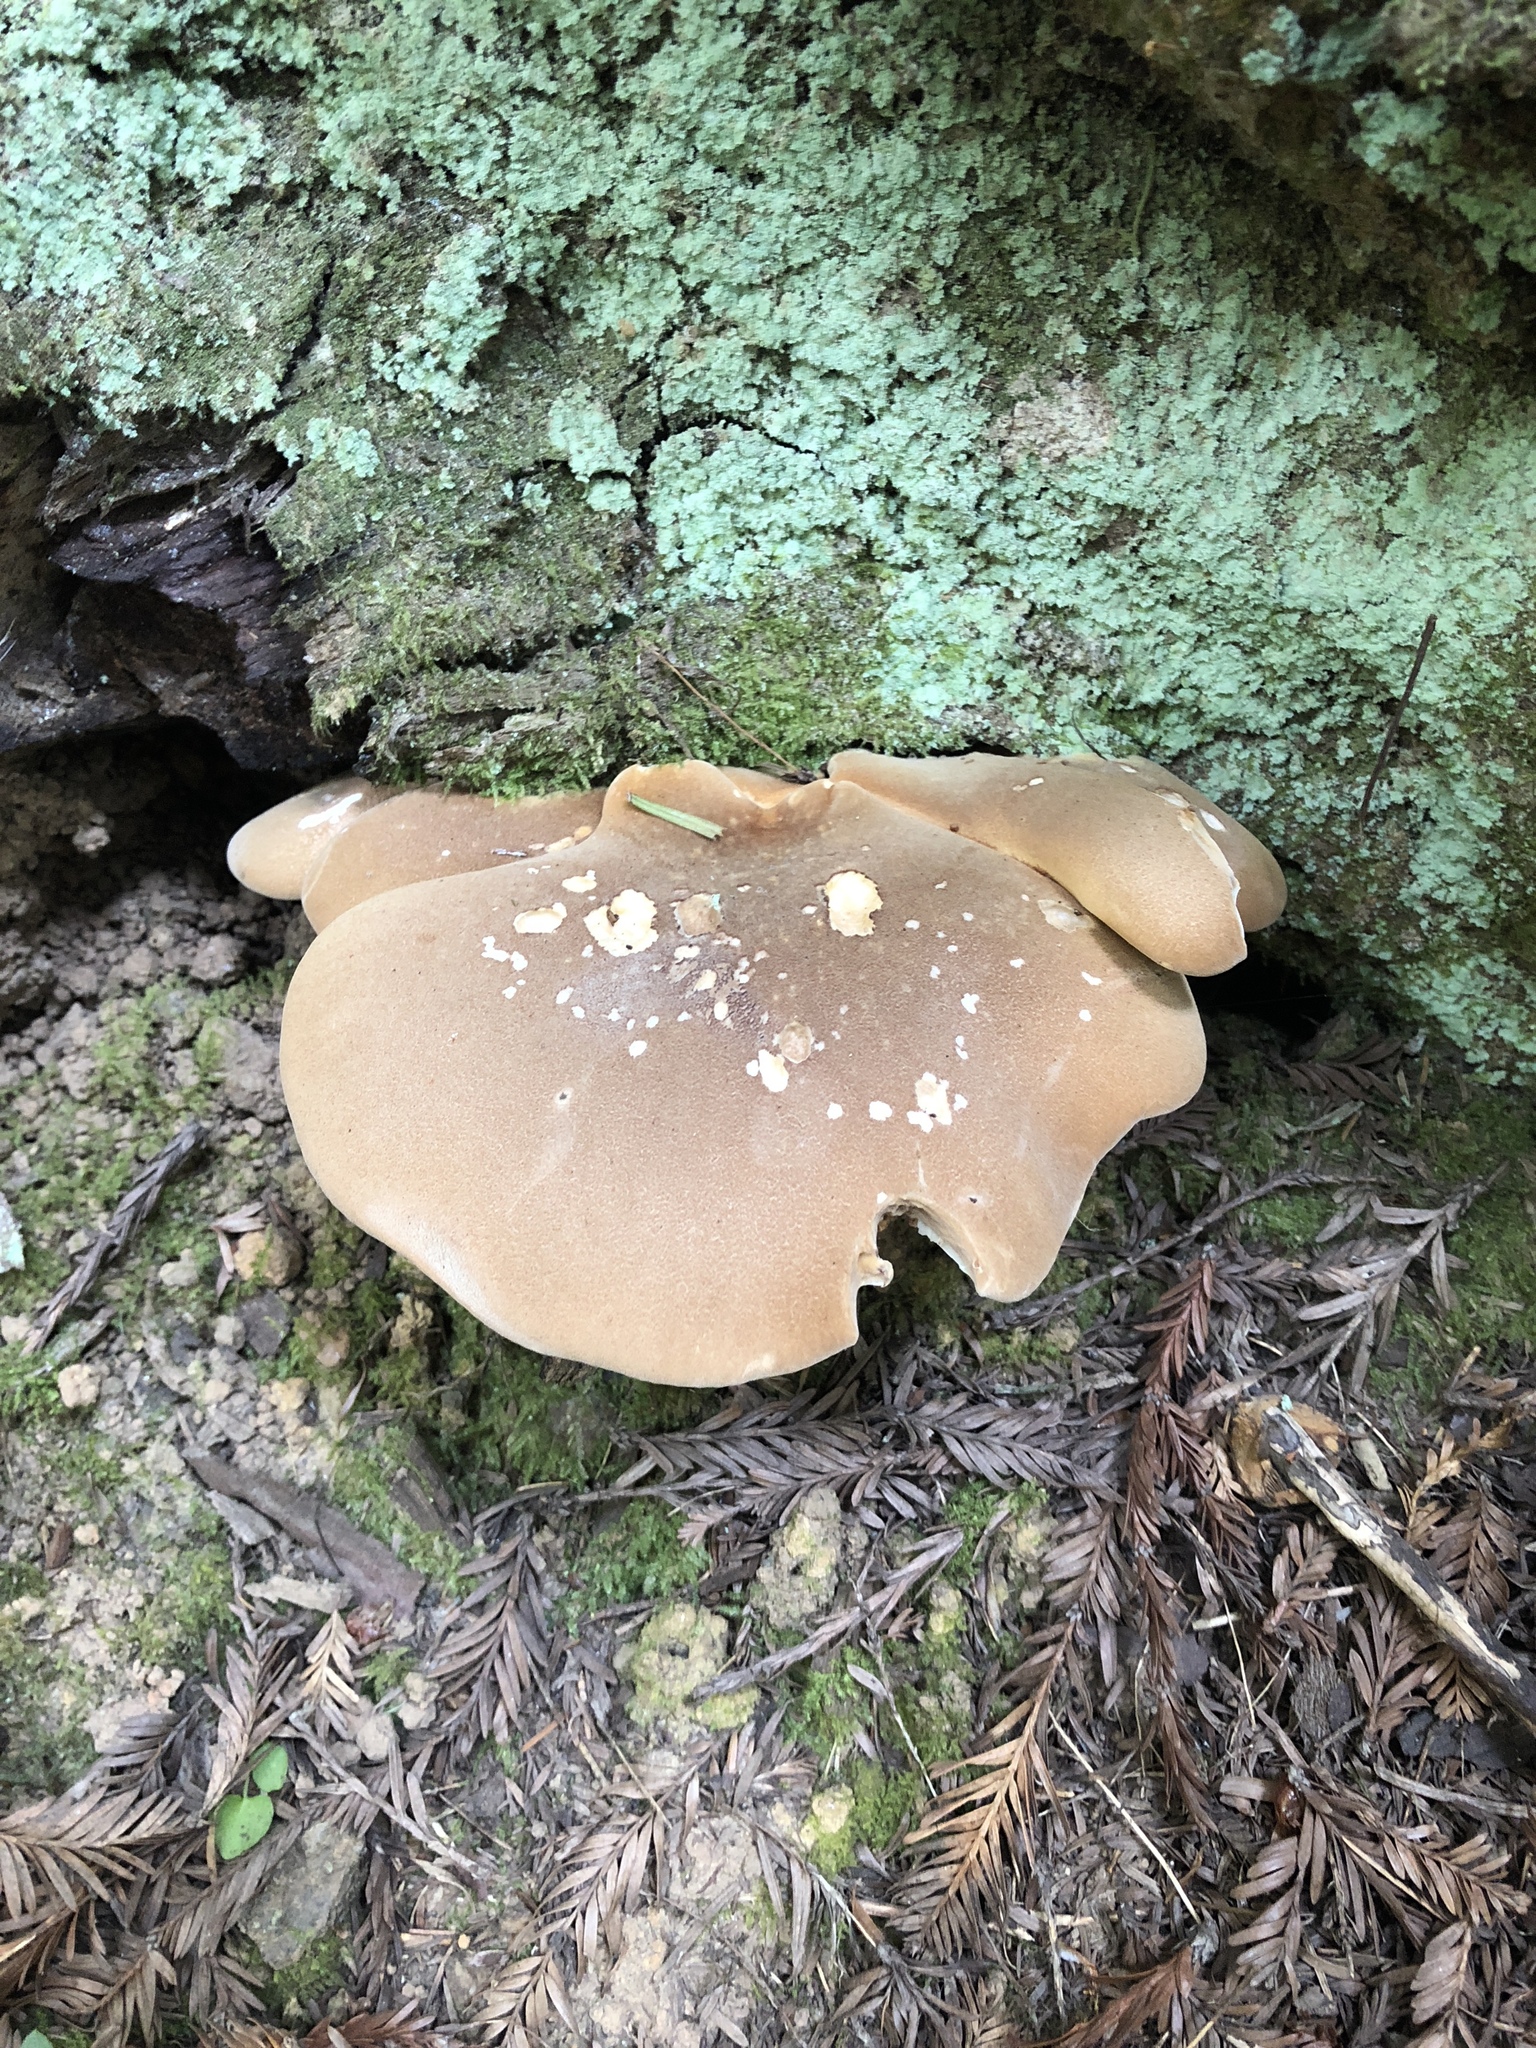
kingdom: Fungi
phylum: Basidiomycota
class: Agaricomycetes
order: Boletales
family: Tapinellaceae
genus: Tapinella
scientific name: Tapinella atrotomentosa
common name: Velvet rollrim
